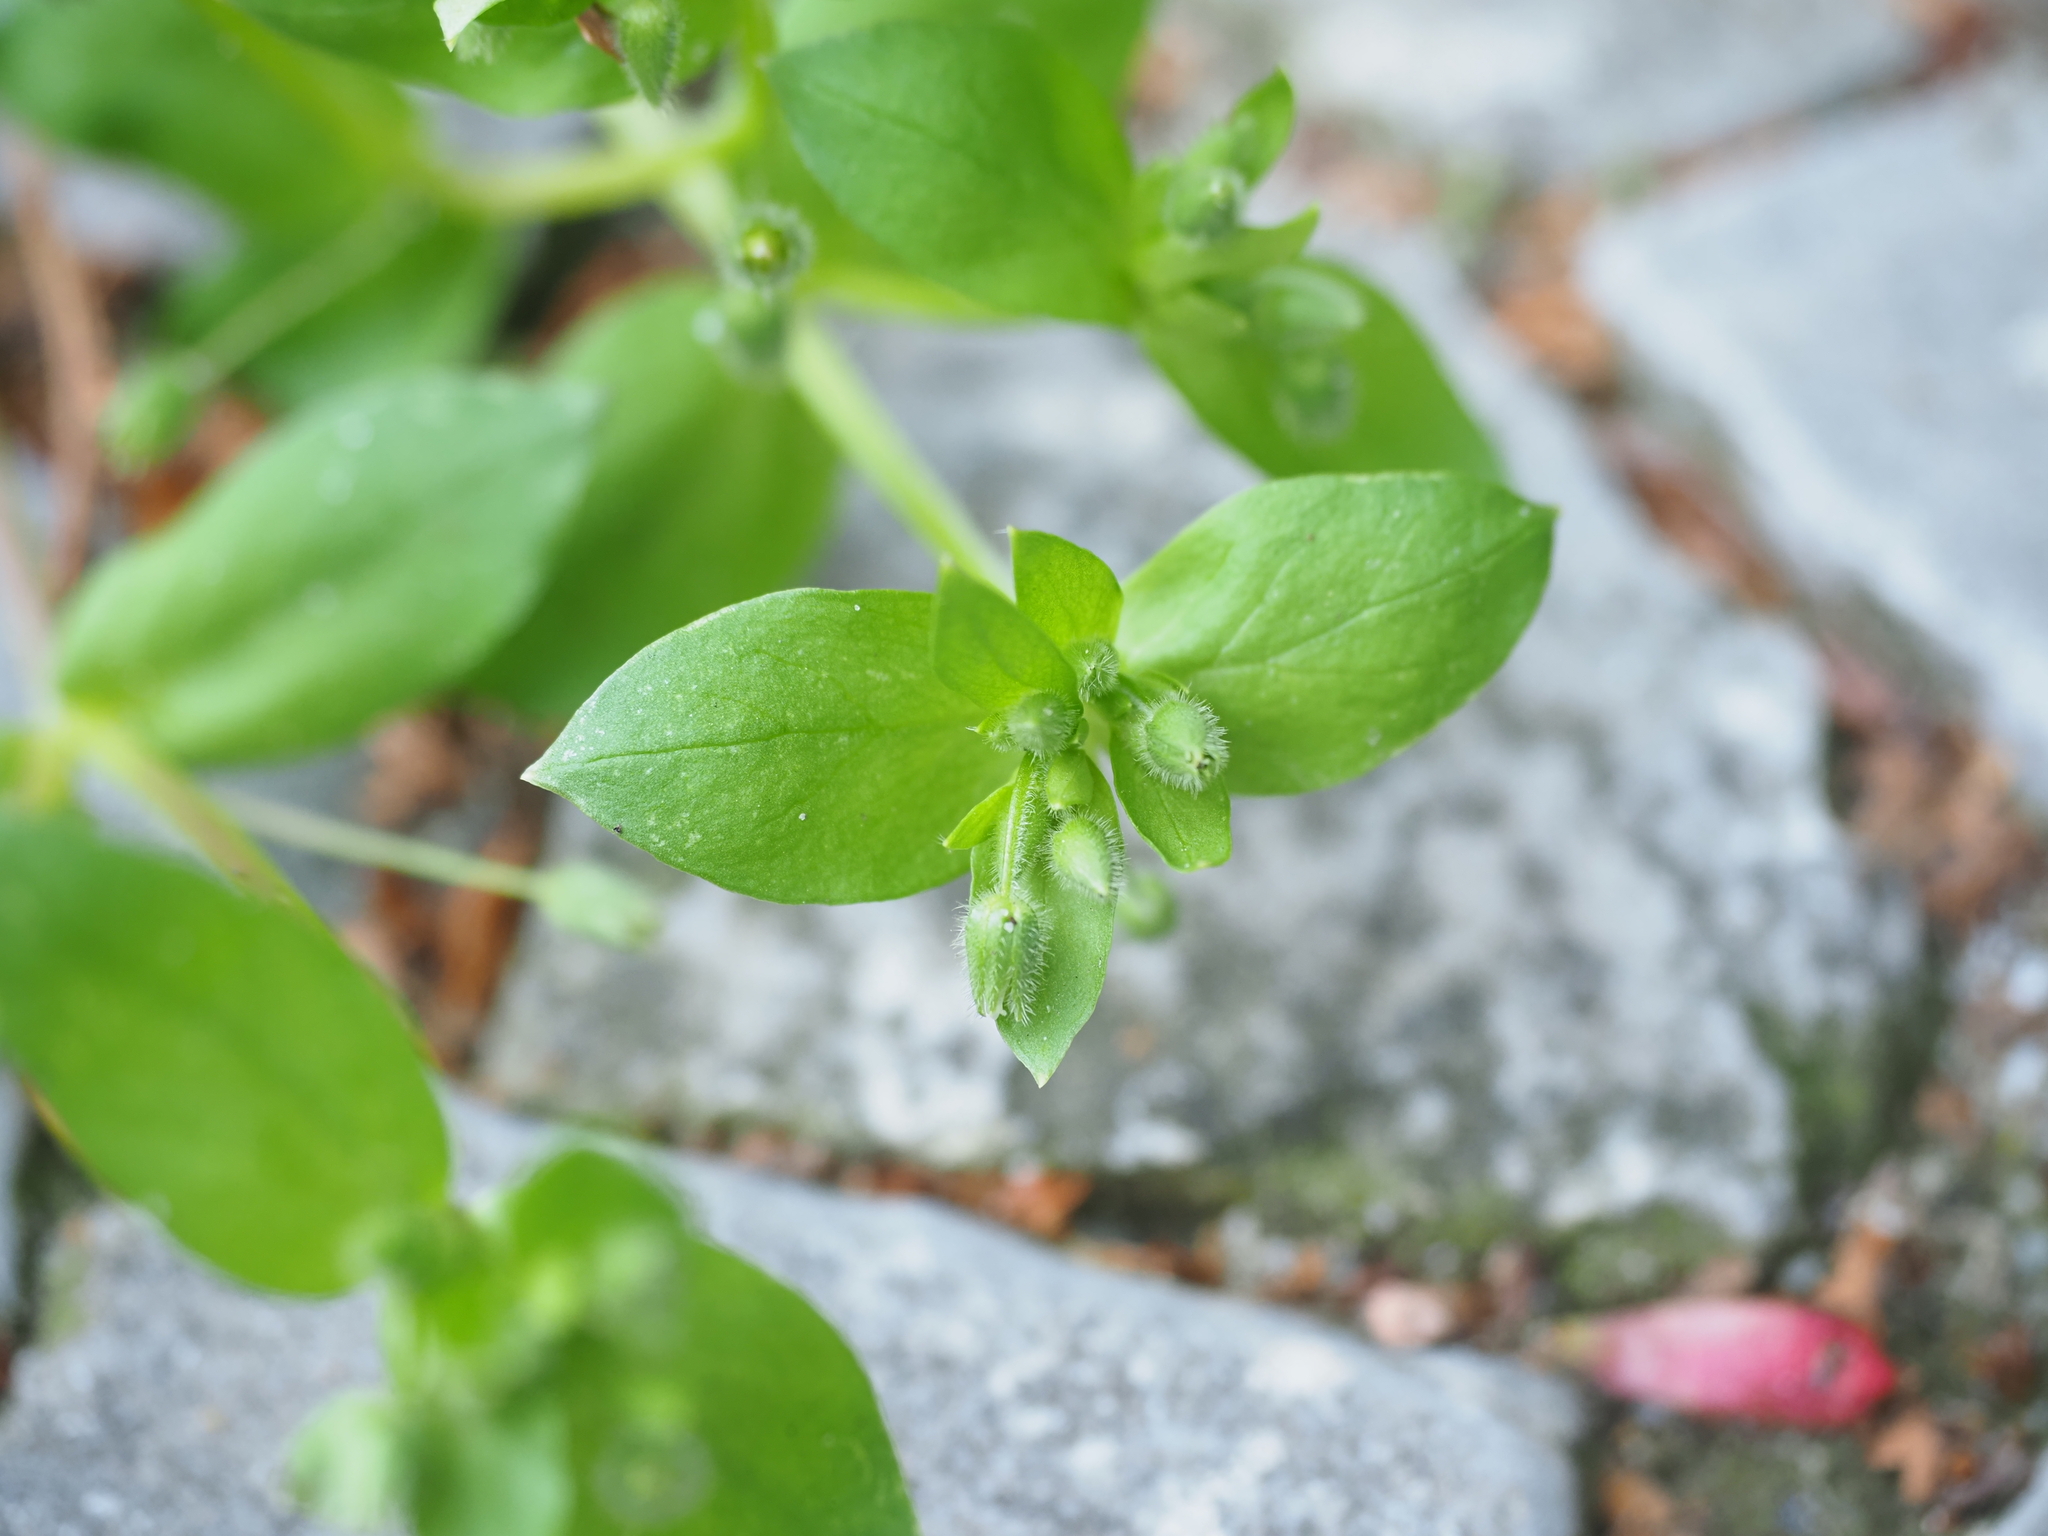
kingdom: Plantae
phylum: Tracheophyta
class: Magnoliopsida
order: Caryophyllales
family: Caryophyllaceae
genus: Stellaria
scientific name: Stellaria media
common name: Common chickweed
